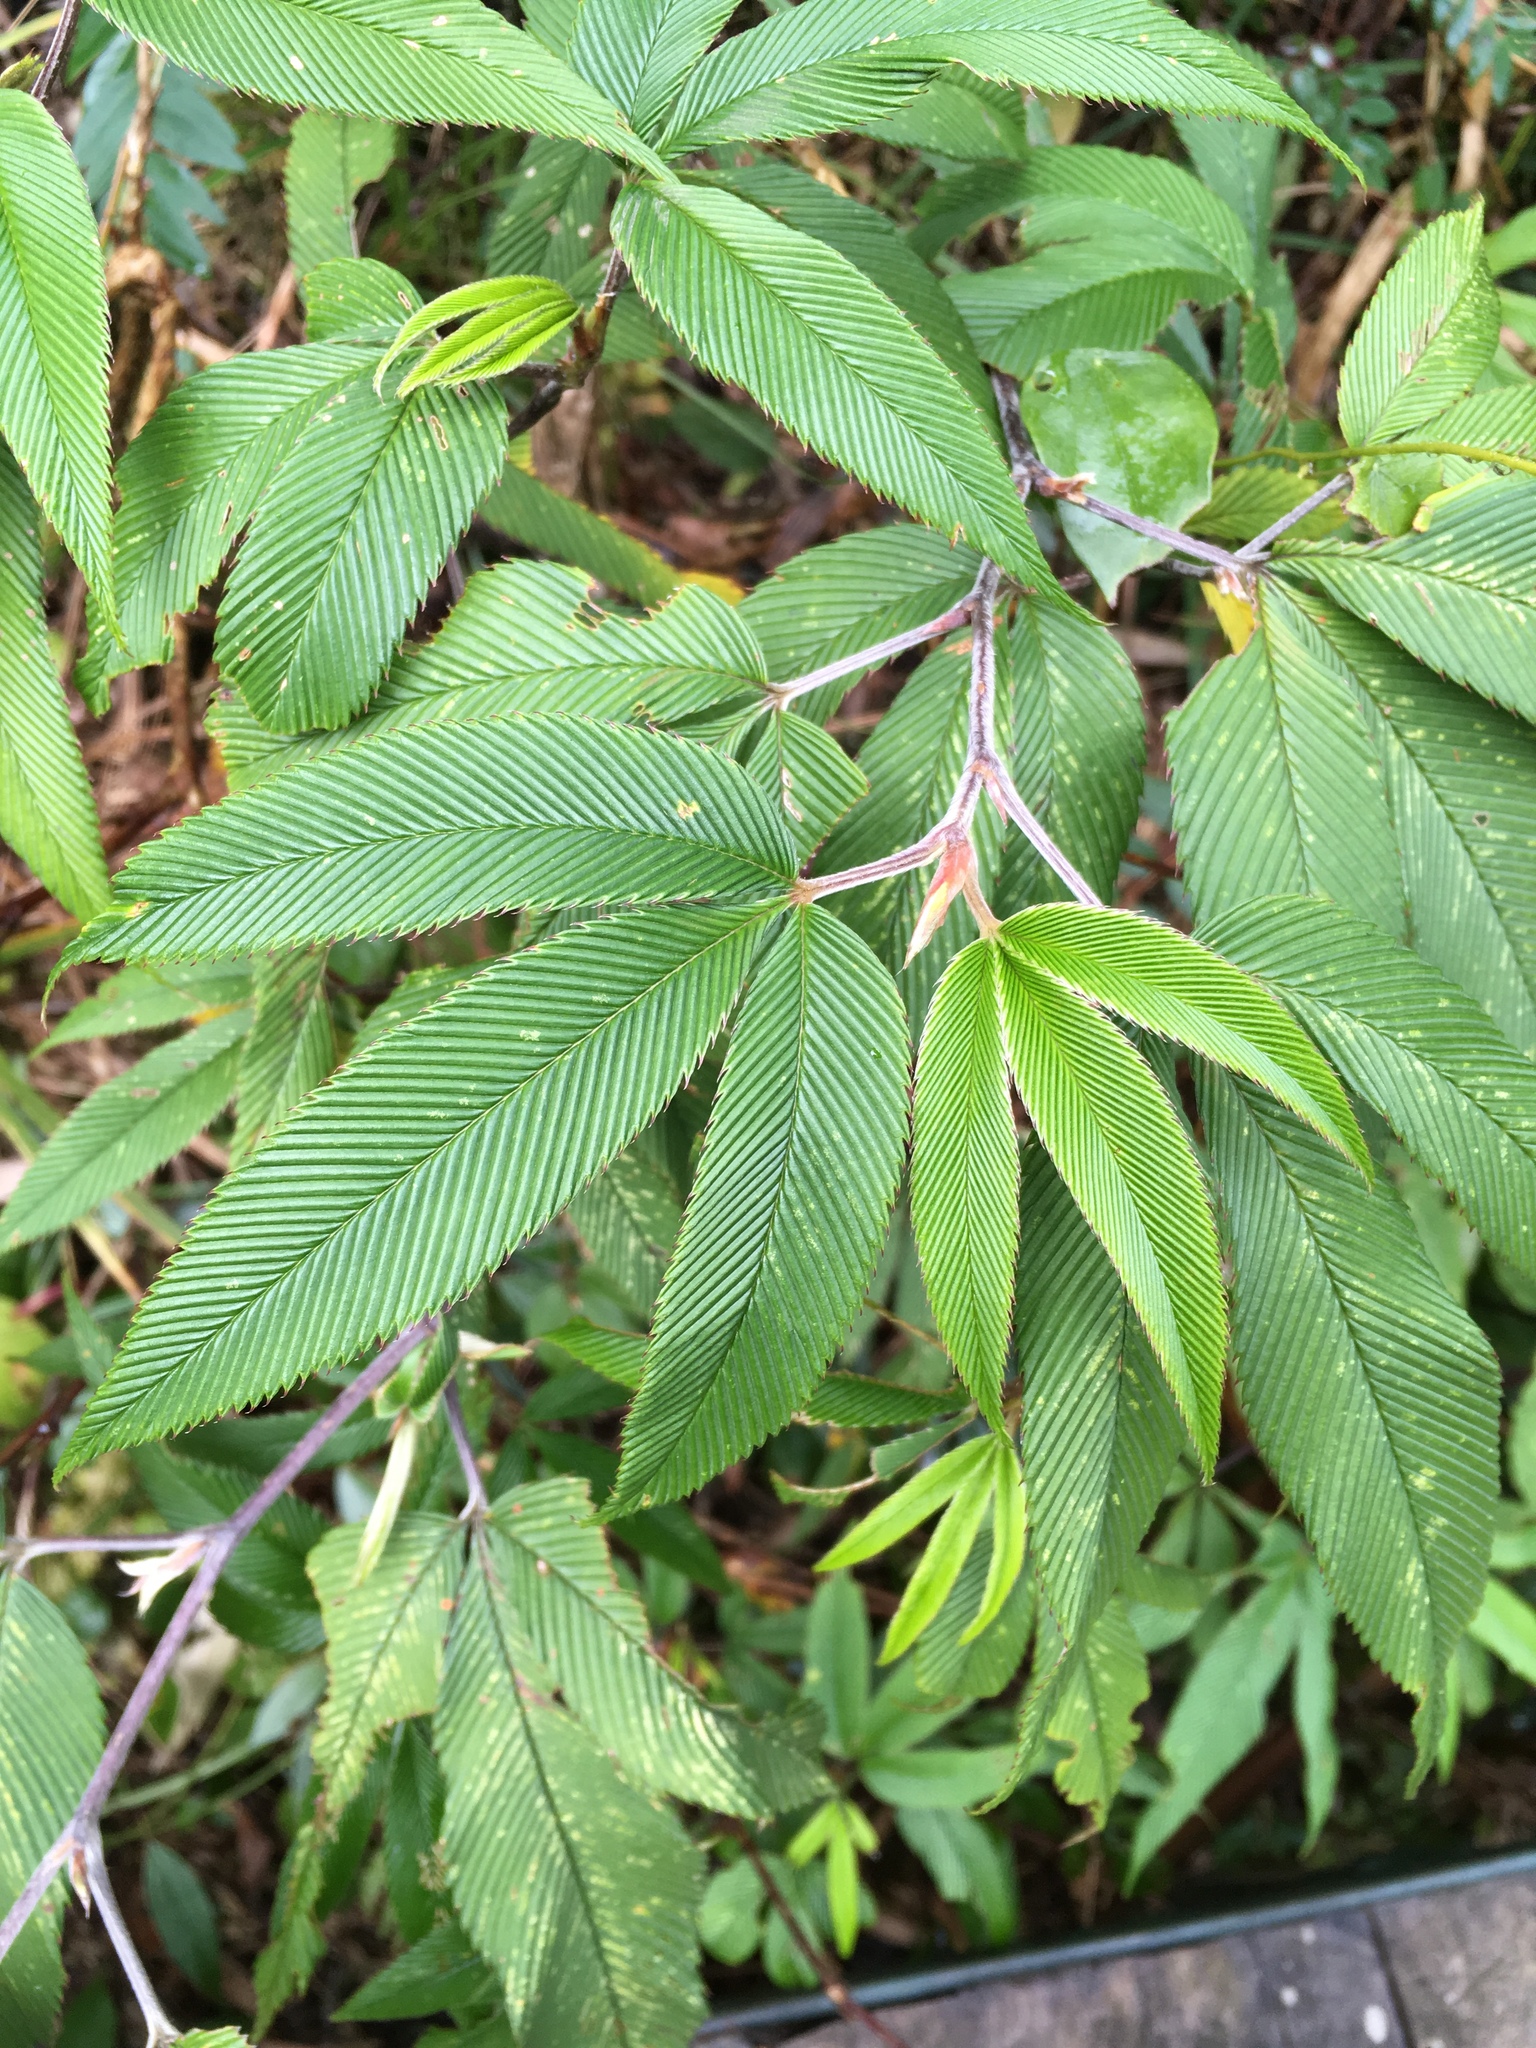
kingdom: Plantae
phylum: Tracheophyta
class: Magnoliopsida
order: Rosales
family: Rosaceae
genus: Rubus
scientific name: Rubus lineatus
